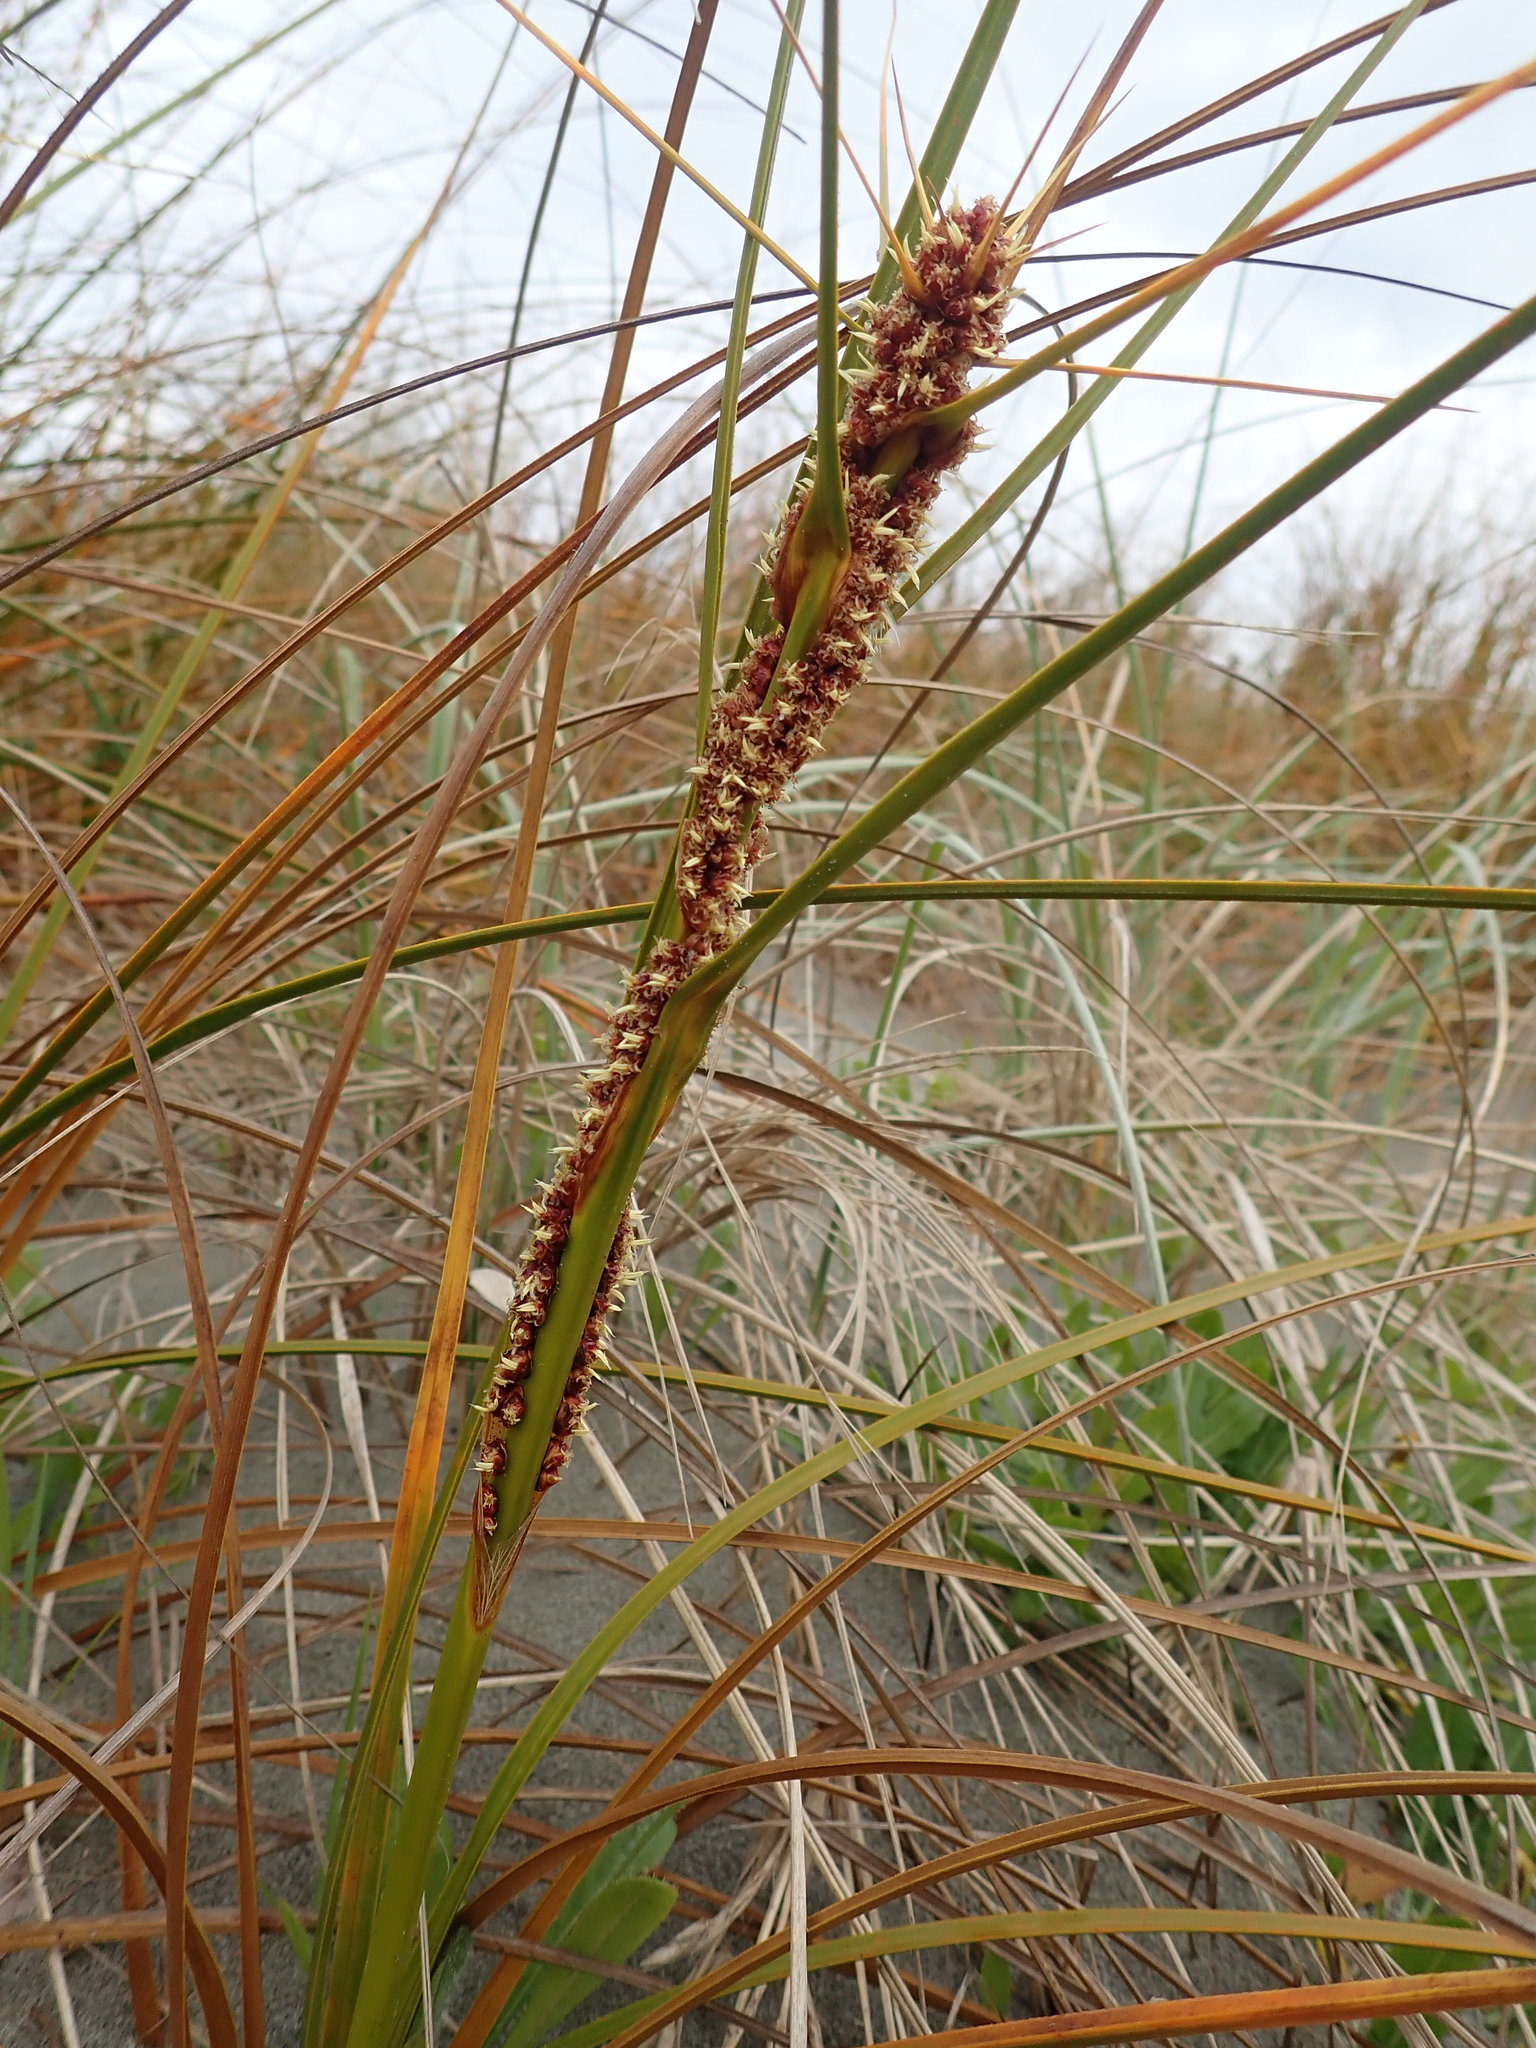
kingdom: Plantae
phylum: Tracheophyta
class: Liliopsida
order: Poales
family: Cyperaceae
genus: Ficinia
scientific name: Ficinia spiralis
